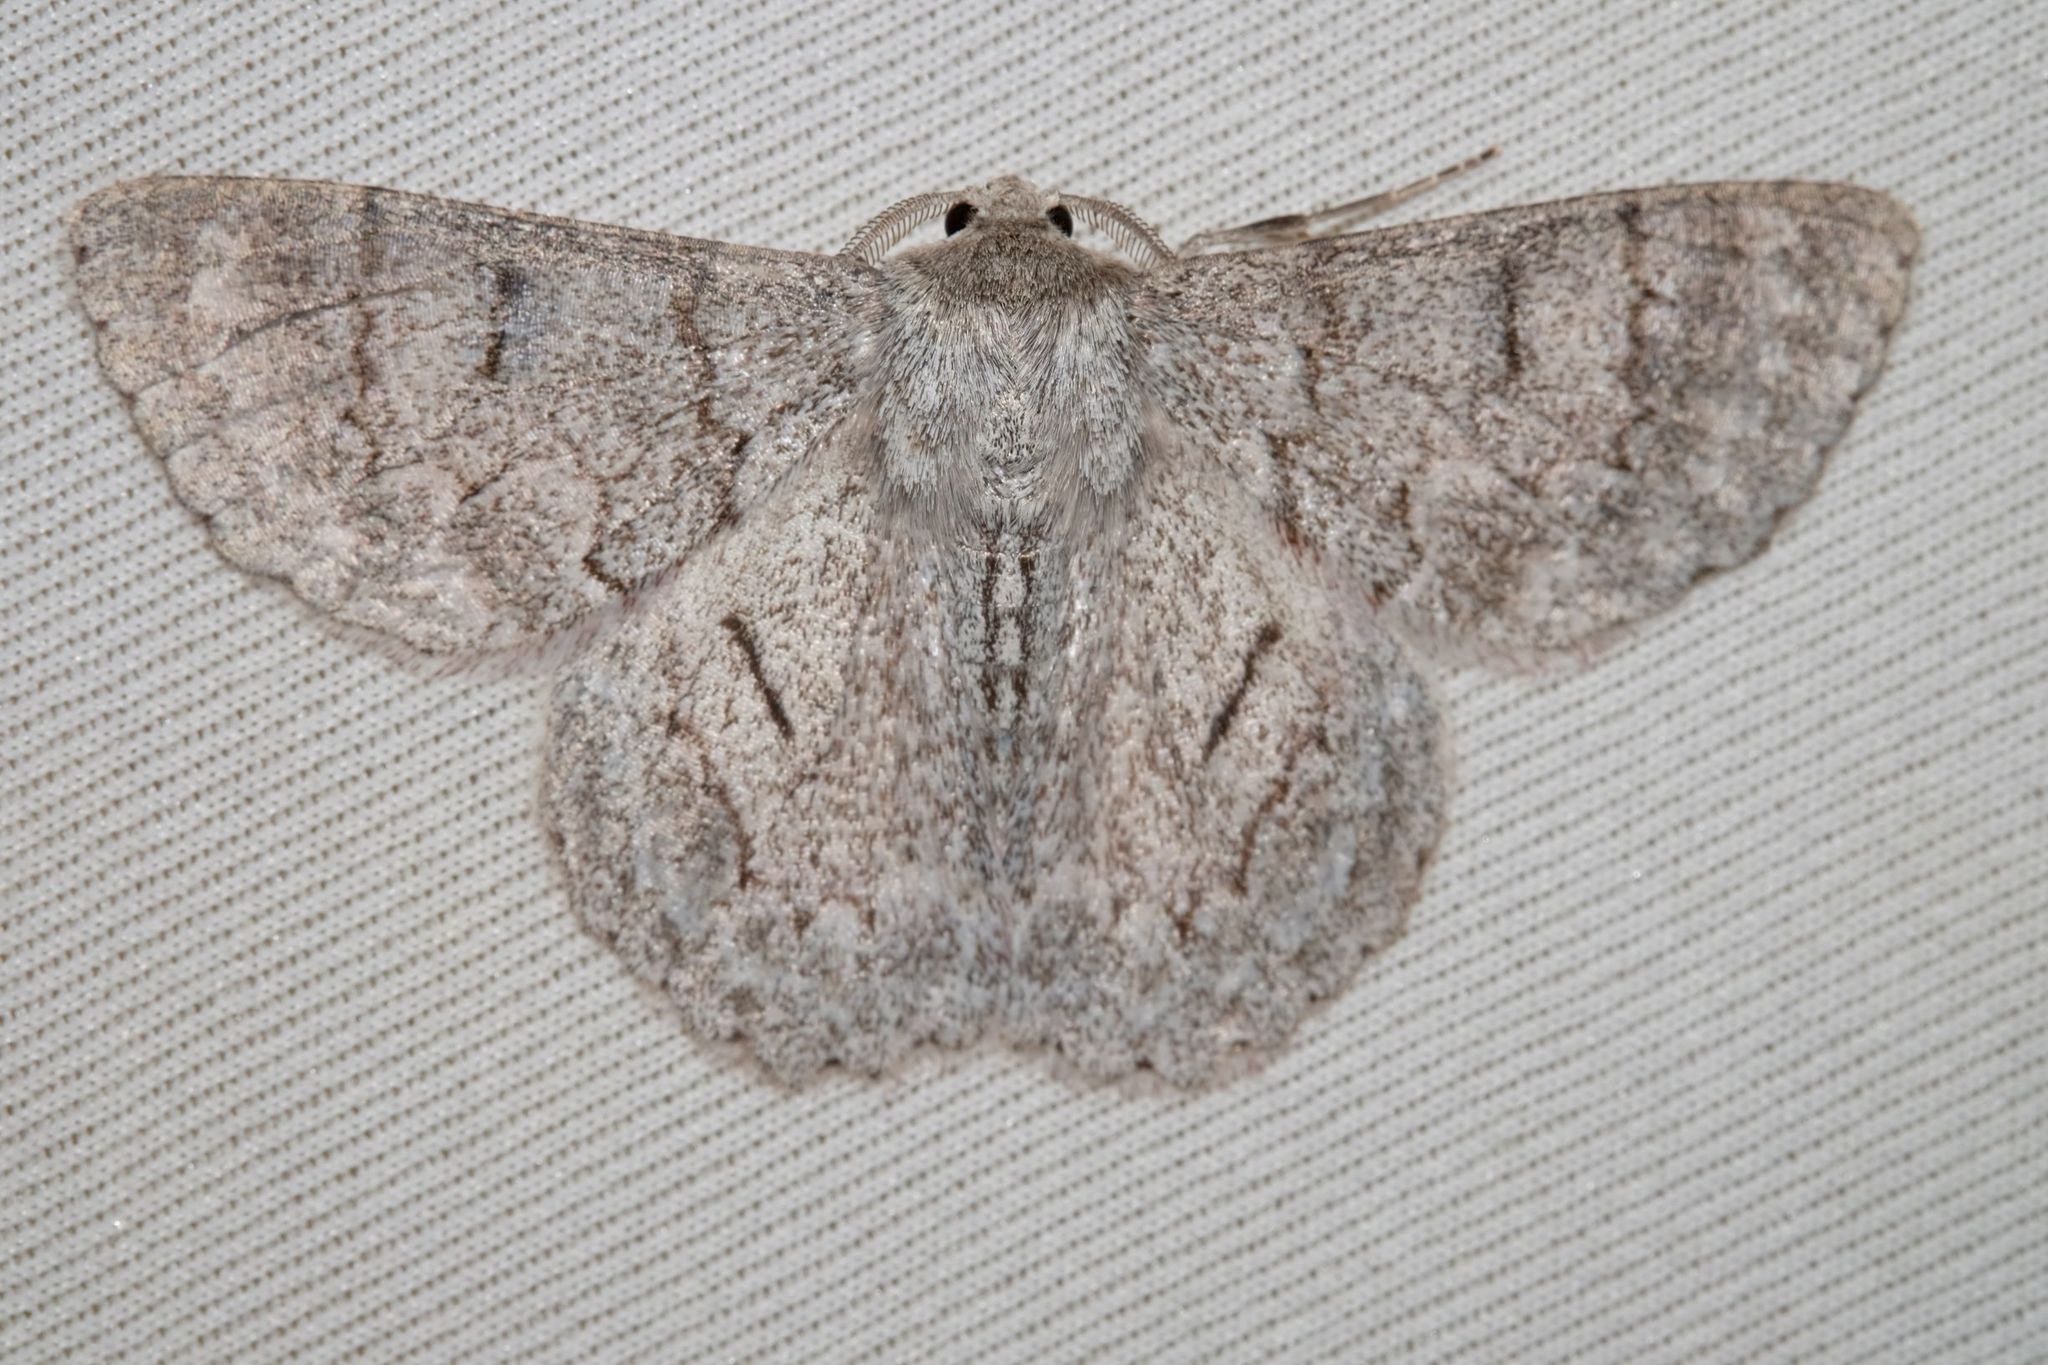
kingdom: Animalia
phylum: Arthropoda
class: Insecta
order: Lepidoptera
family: Geometridae
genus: Crypsiphona
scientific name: Crypsiphona ocultaria
